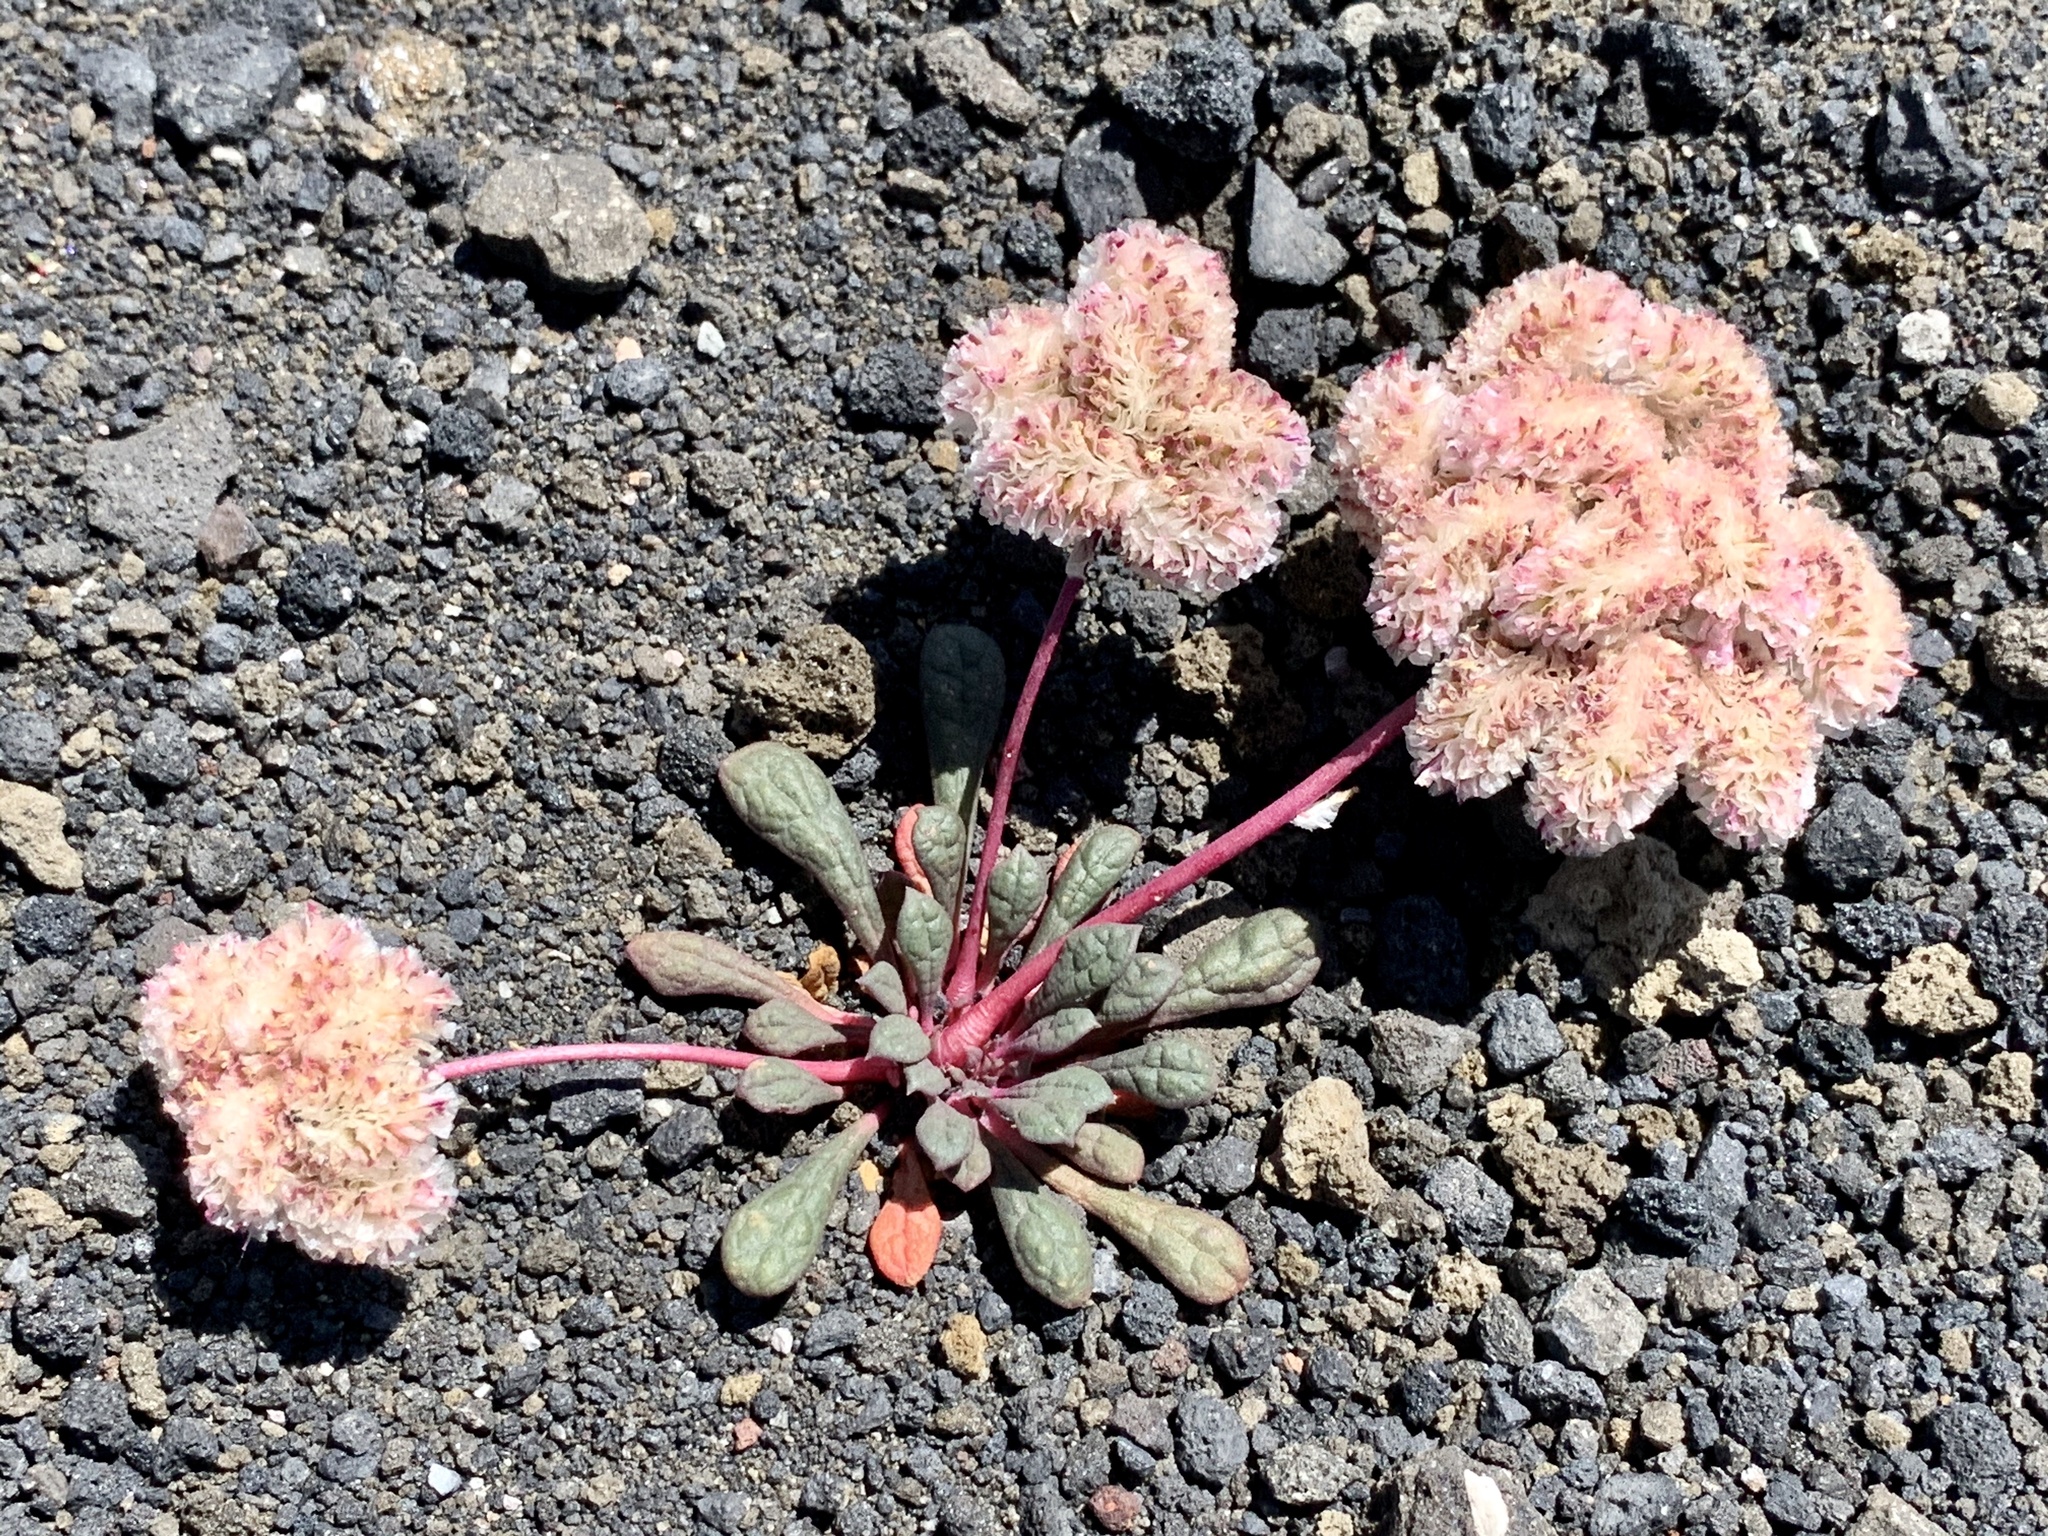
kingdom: Plantae
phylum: Tracheophyta
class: Magnoliopsida
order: Caryophyllales
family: Montiaceae
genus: Calyptridium
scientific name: Calyptridium monospermum
